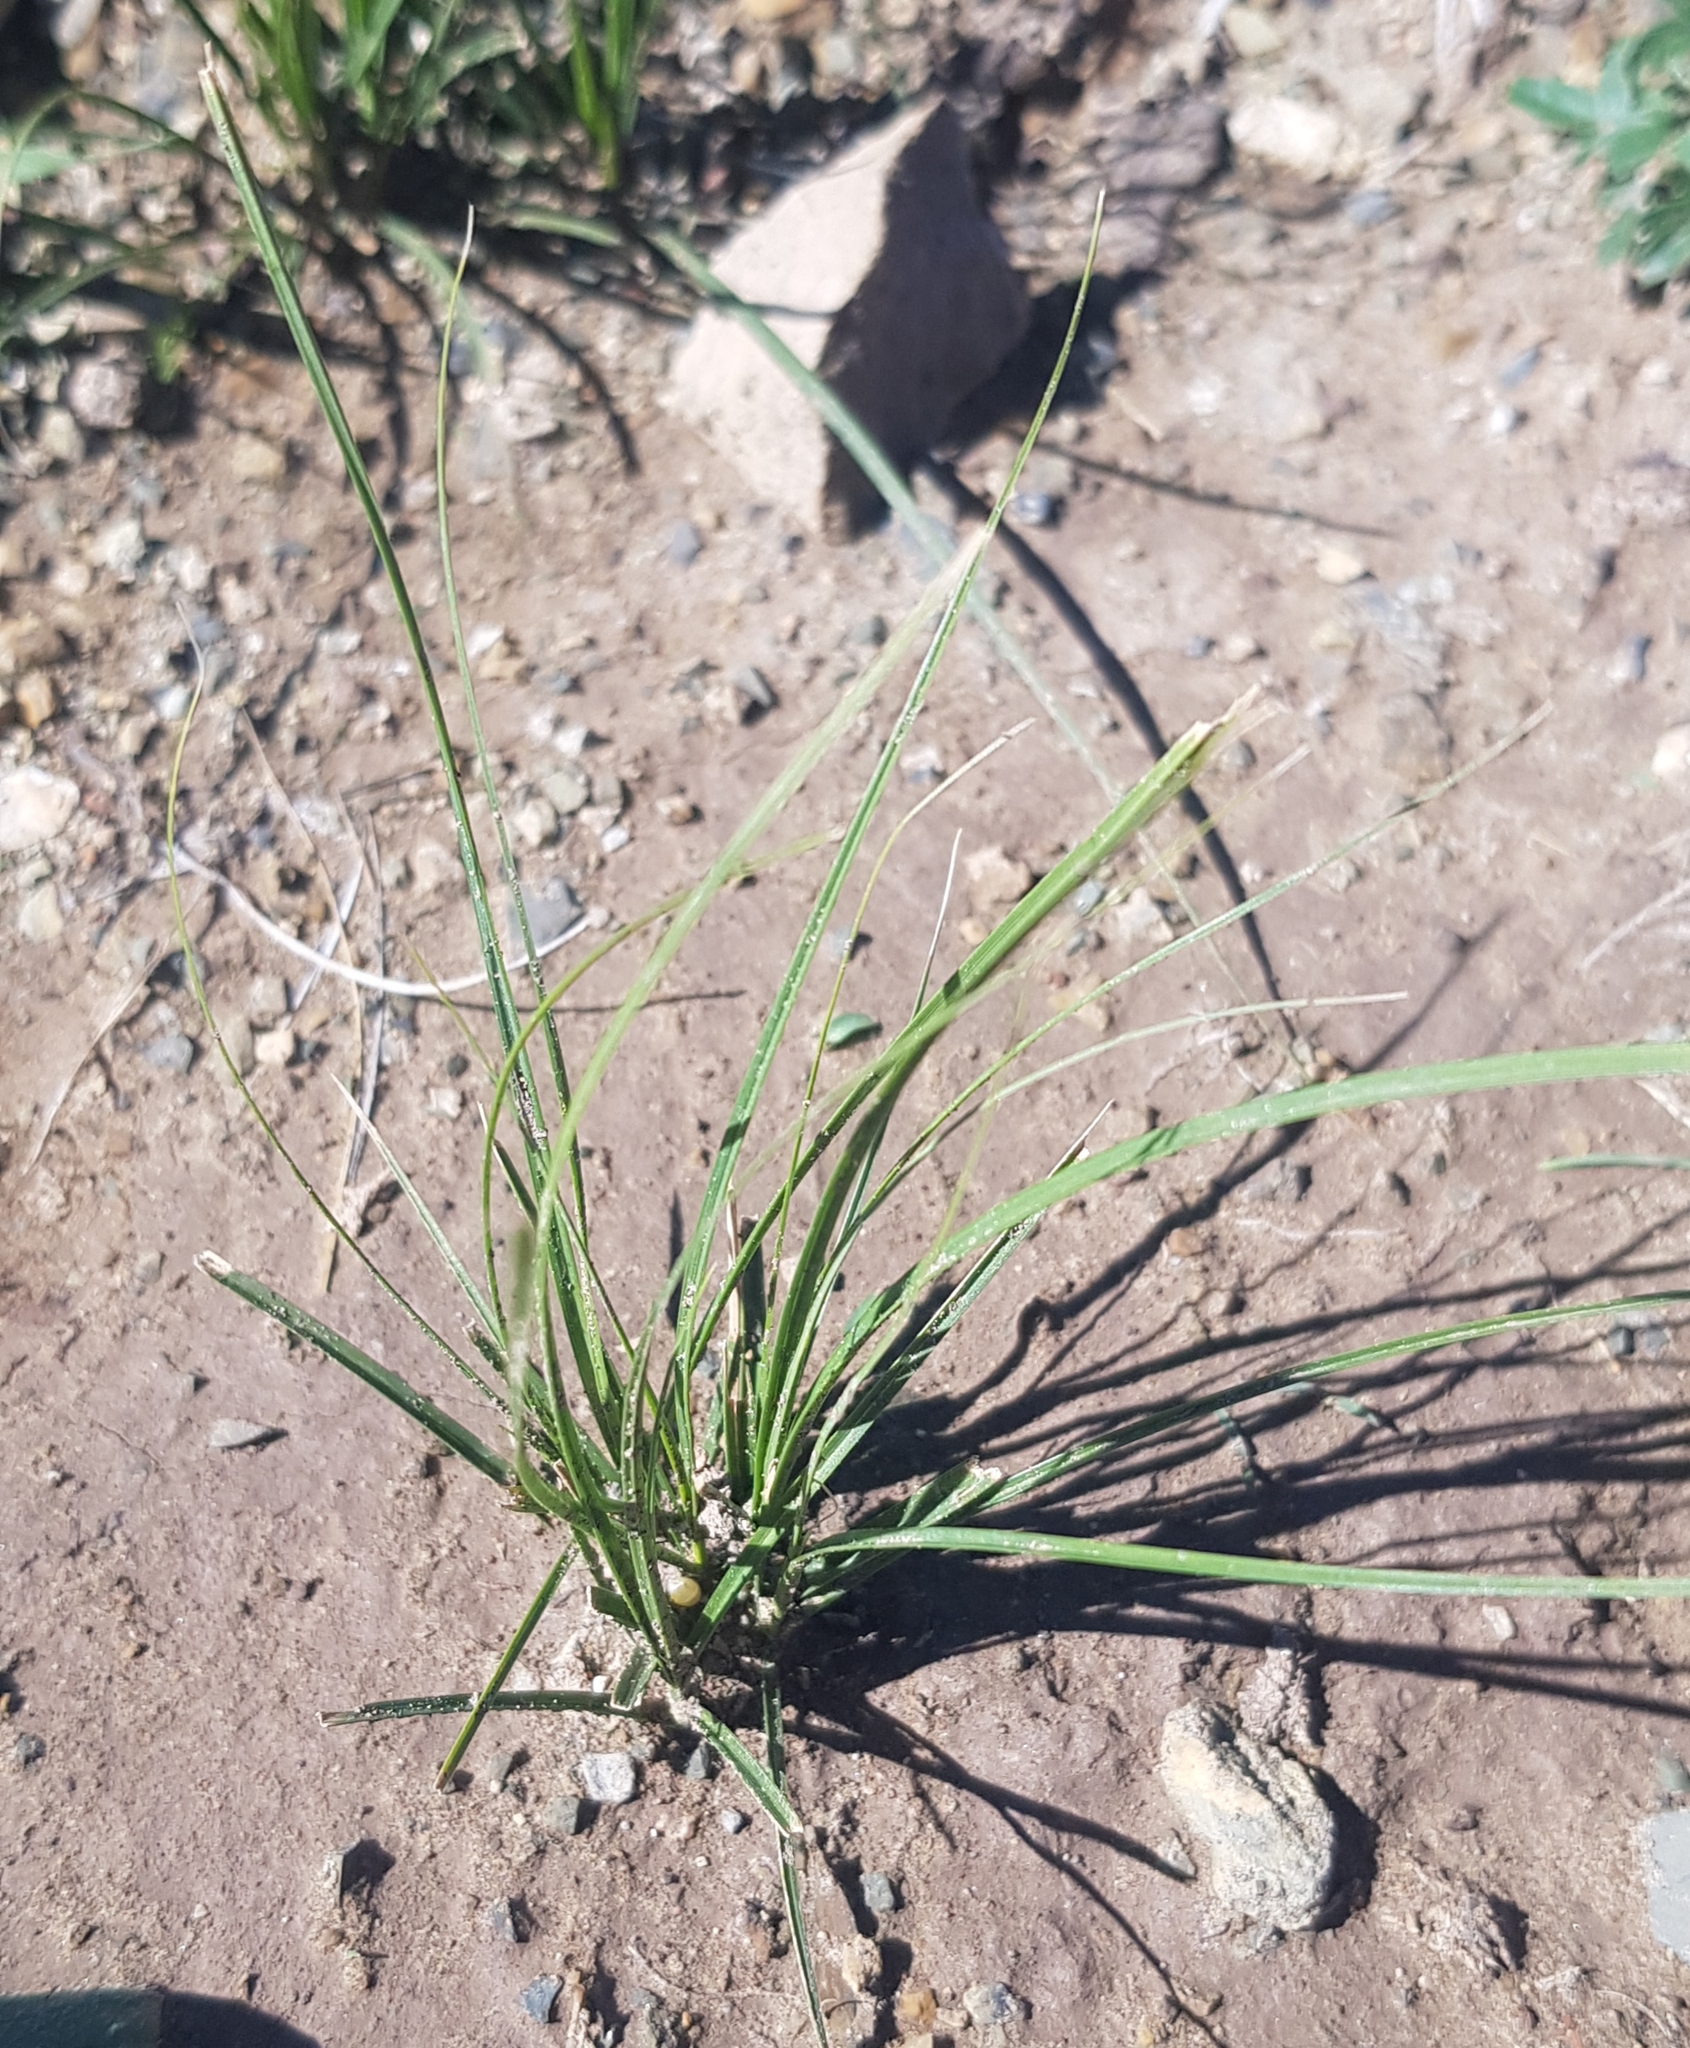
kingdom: Plantae
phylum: Tracheophyta
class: Liliopsida
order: Poales
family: Cyperaceae
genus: Carex
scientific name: Carex duriuscula
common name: Involute-leaved sedge
